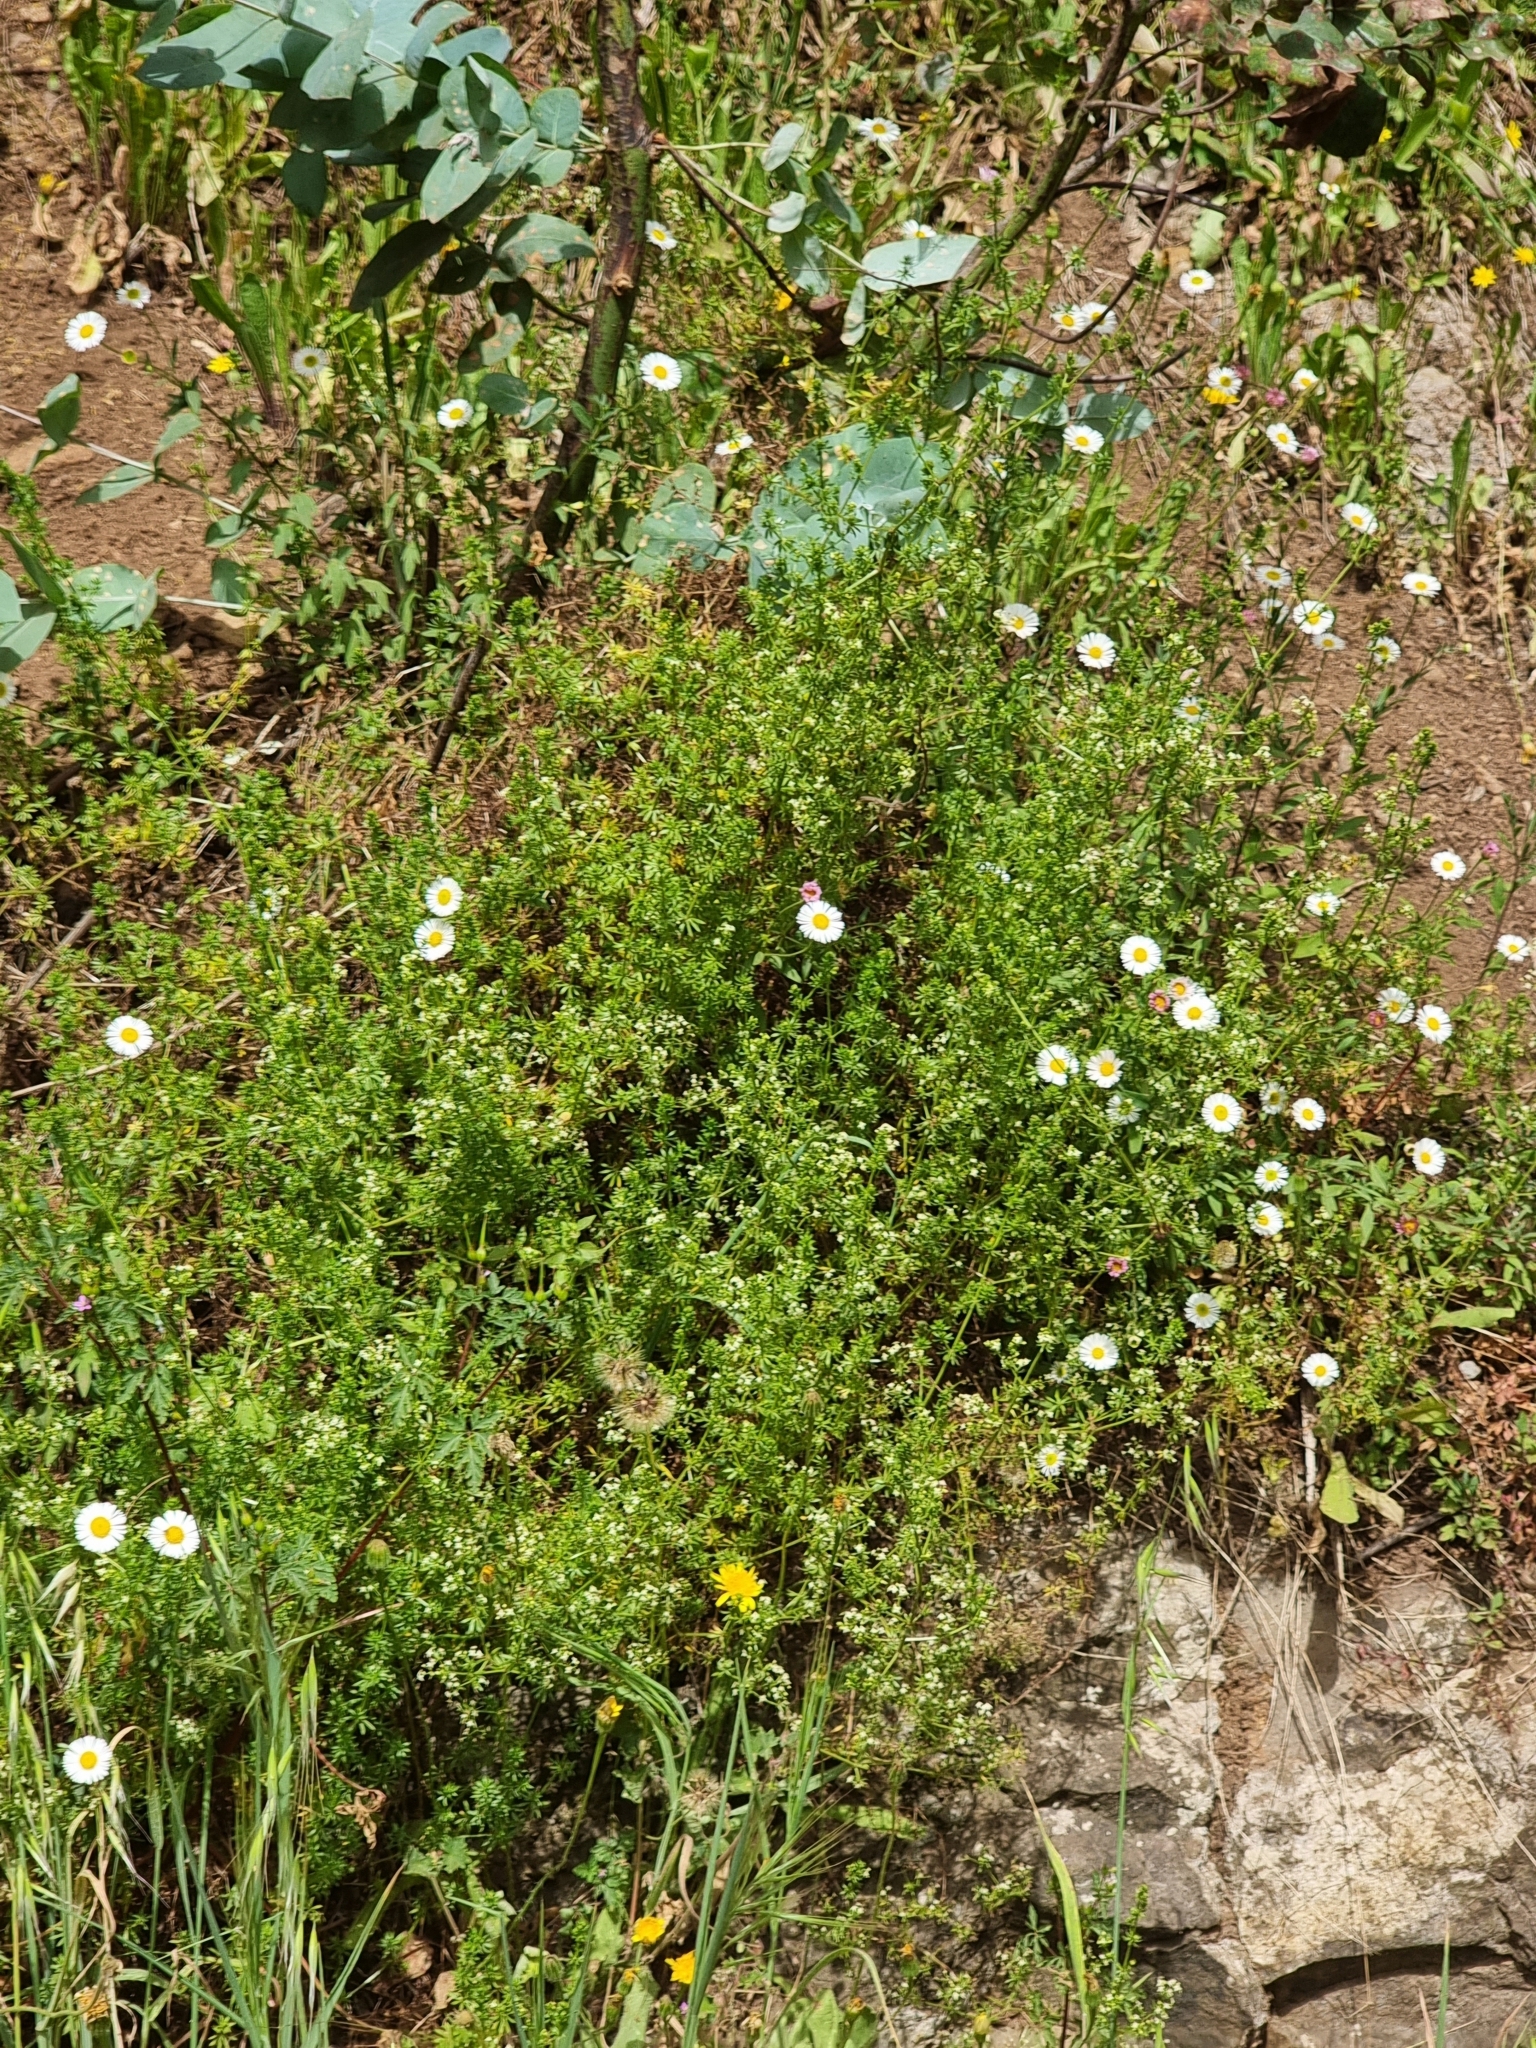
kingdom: Plantae
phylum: Tracheophyta
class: Magnoliopsida
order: Asterales
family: Asteraceae
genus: Erigeron
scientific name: Erigeron karvinskianus
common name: Mexican fleabane
